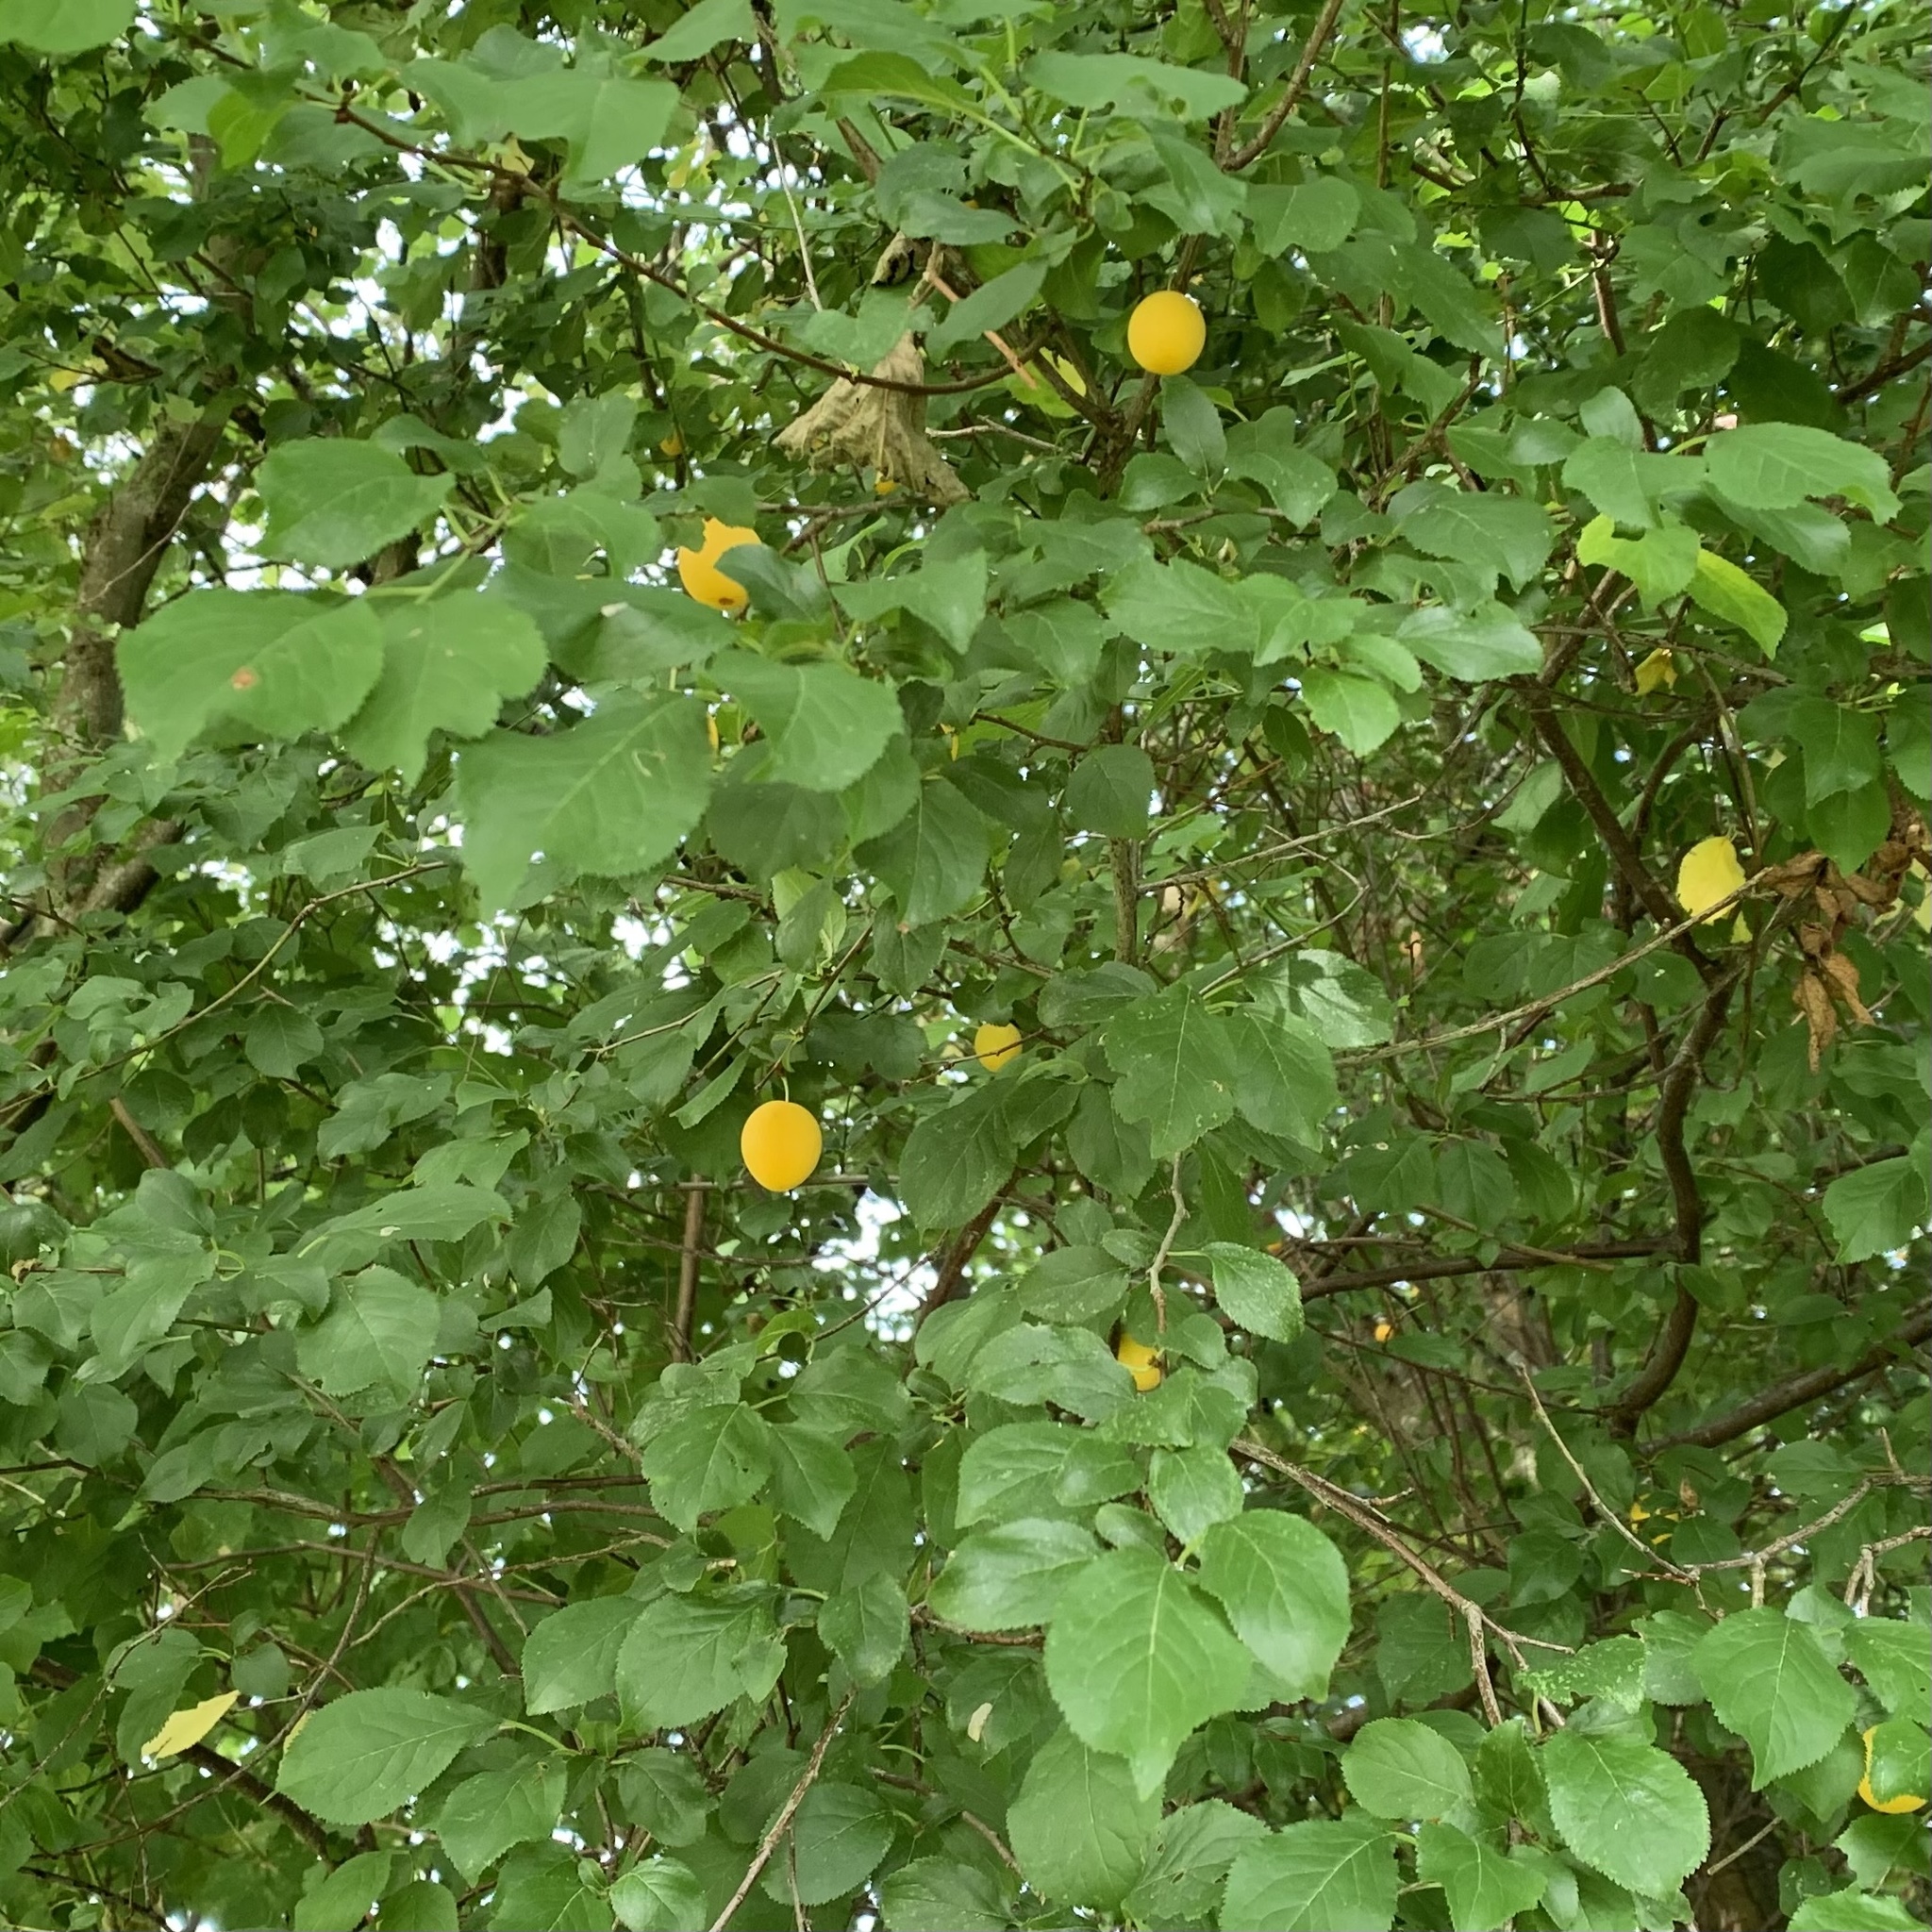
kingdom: Plantae
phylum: Tracheophyta
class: Magnoliopsida
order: Rosales
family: Rosaceae
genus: Prunus
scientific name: Prunus cerasifera
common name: Cherry plum
